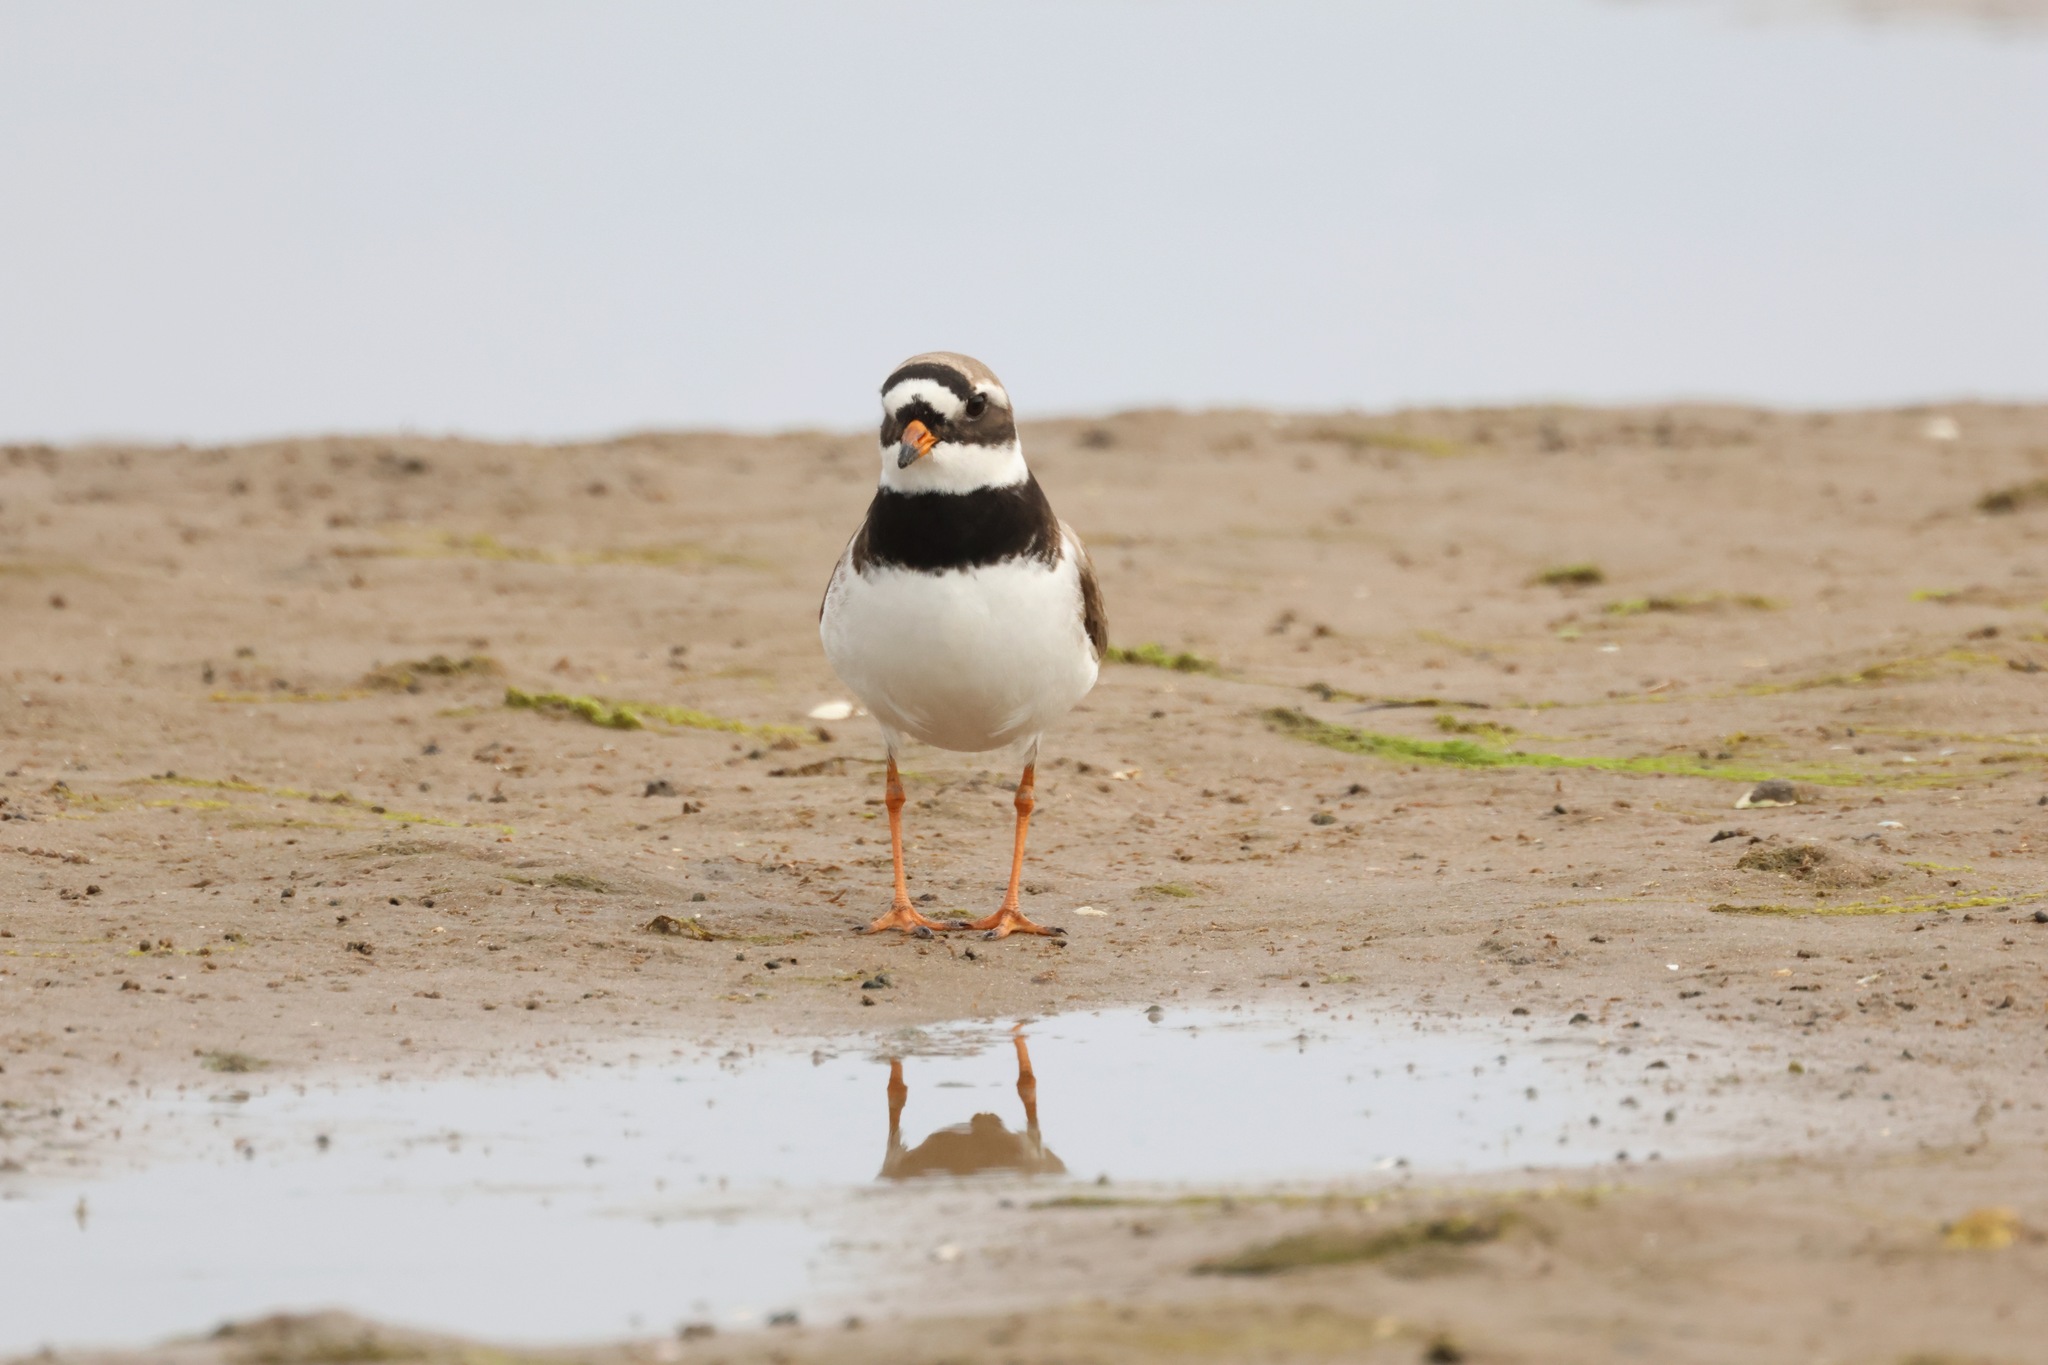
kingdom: Animalia
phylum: Chordata
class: Aves
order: Charadriiformes
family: Charadriidae
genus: Charadrius
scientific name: Charadrius hiaticula
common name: Common ringed plover
